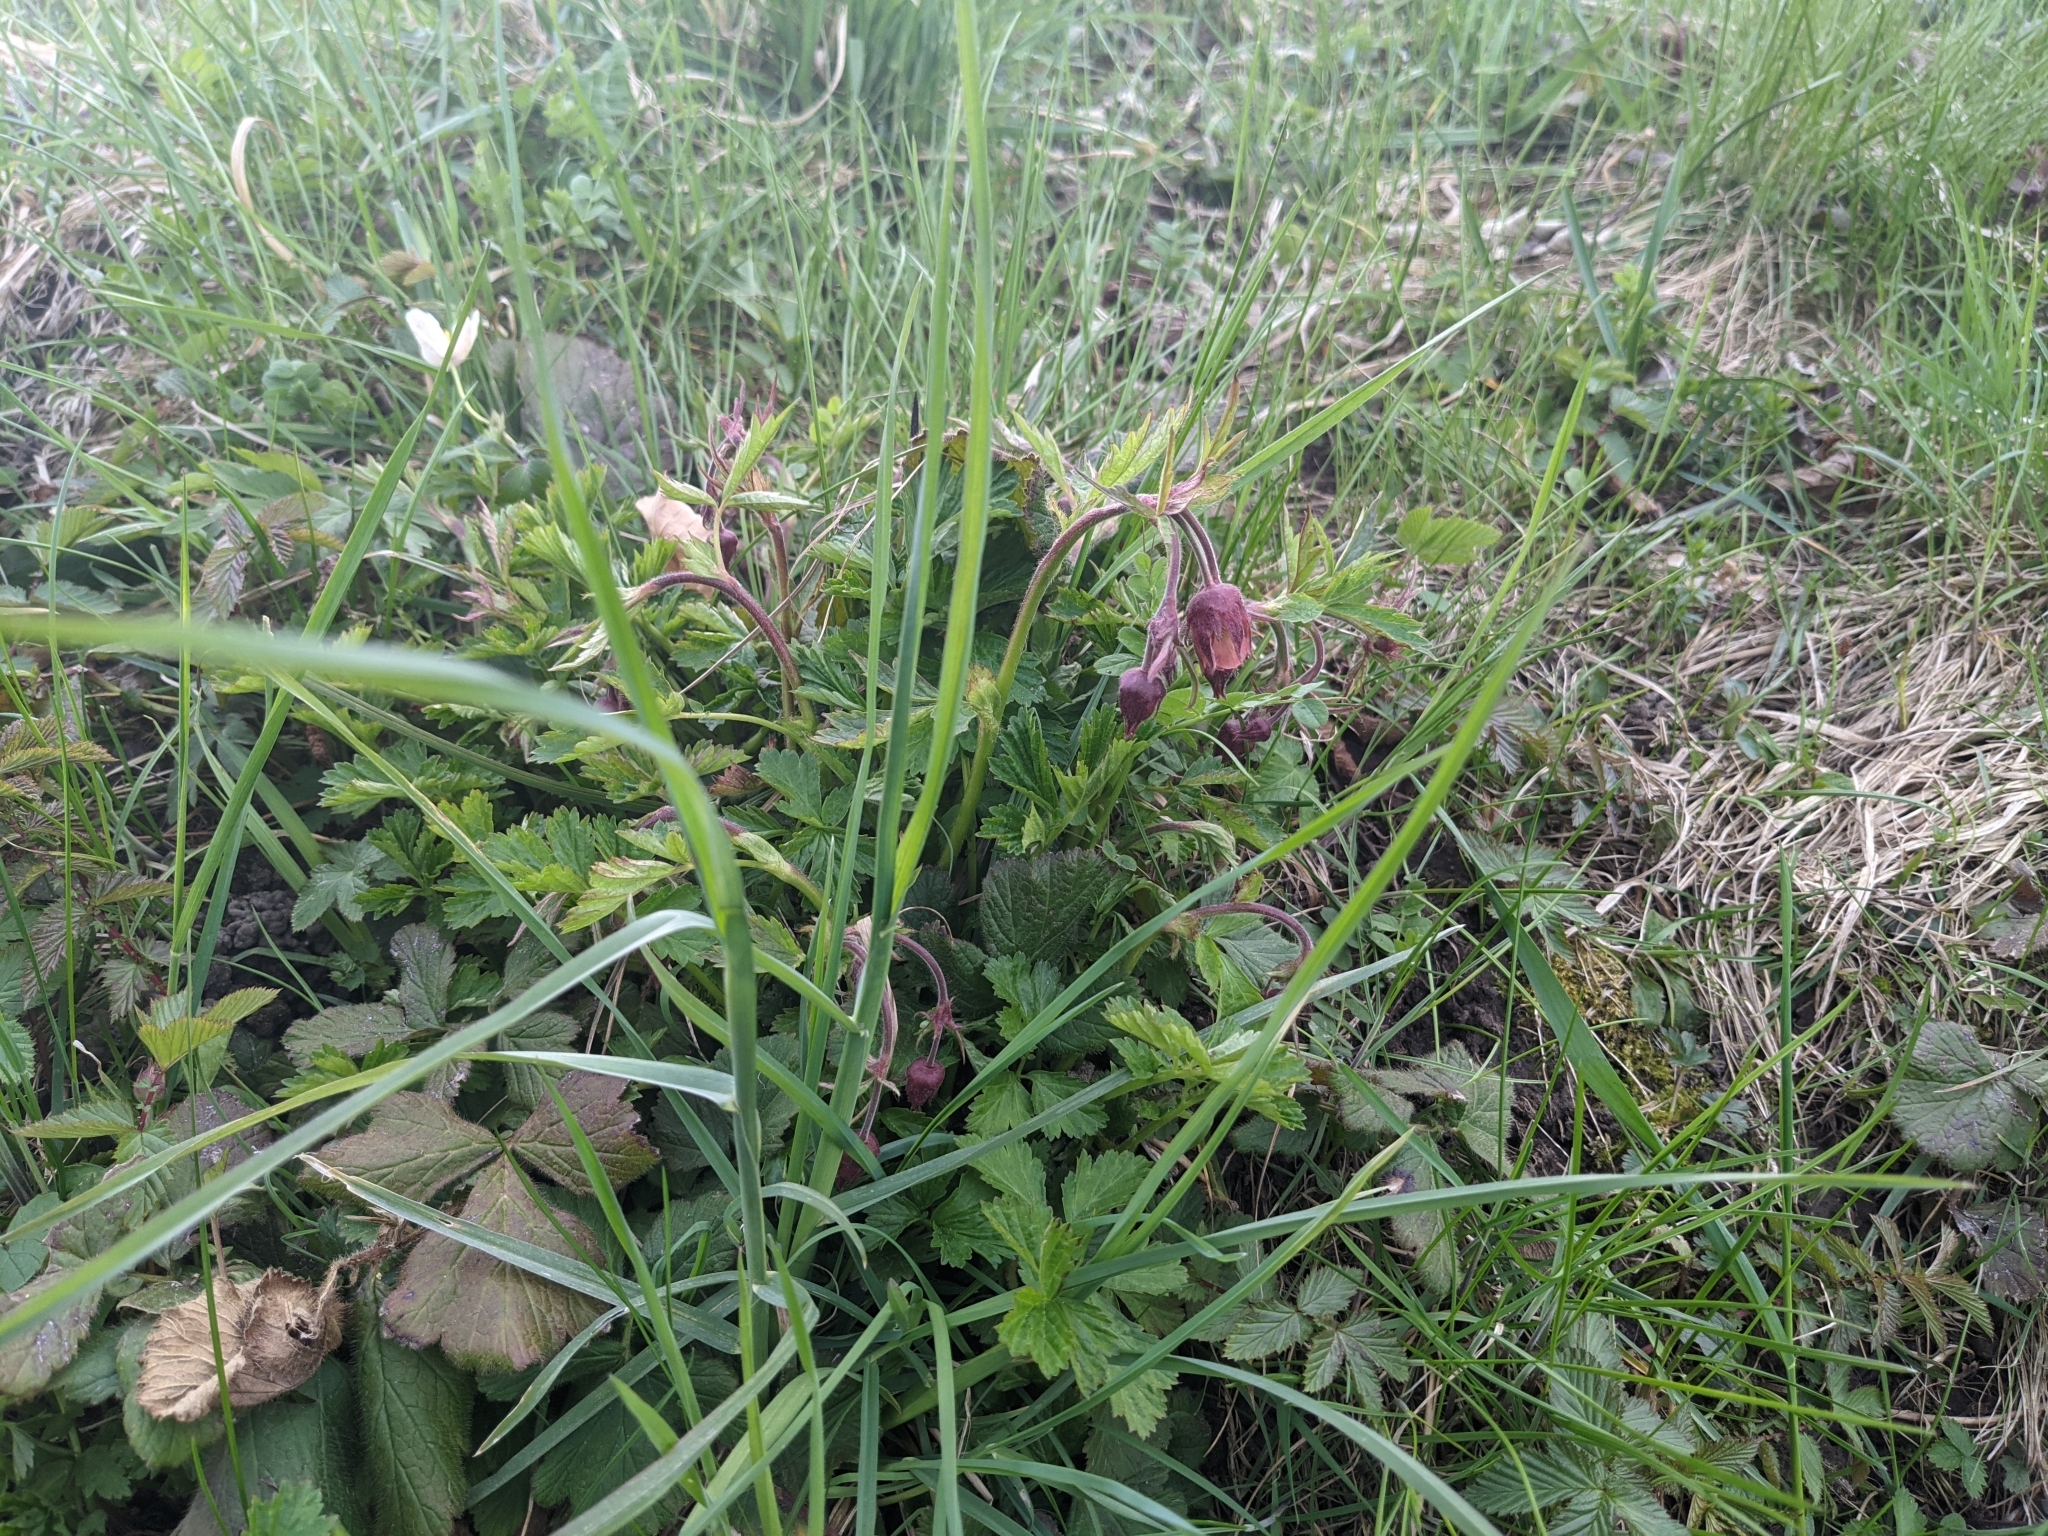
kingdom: Plantae
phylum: Tracheophyta
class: Magnoliopsida
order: Rosales
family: Rosaceae
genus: Geum
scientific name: Geum rivale
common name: Water avens
